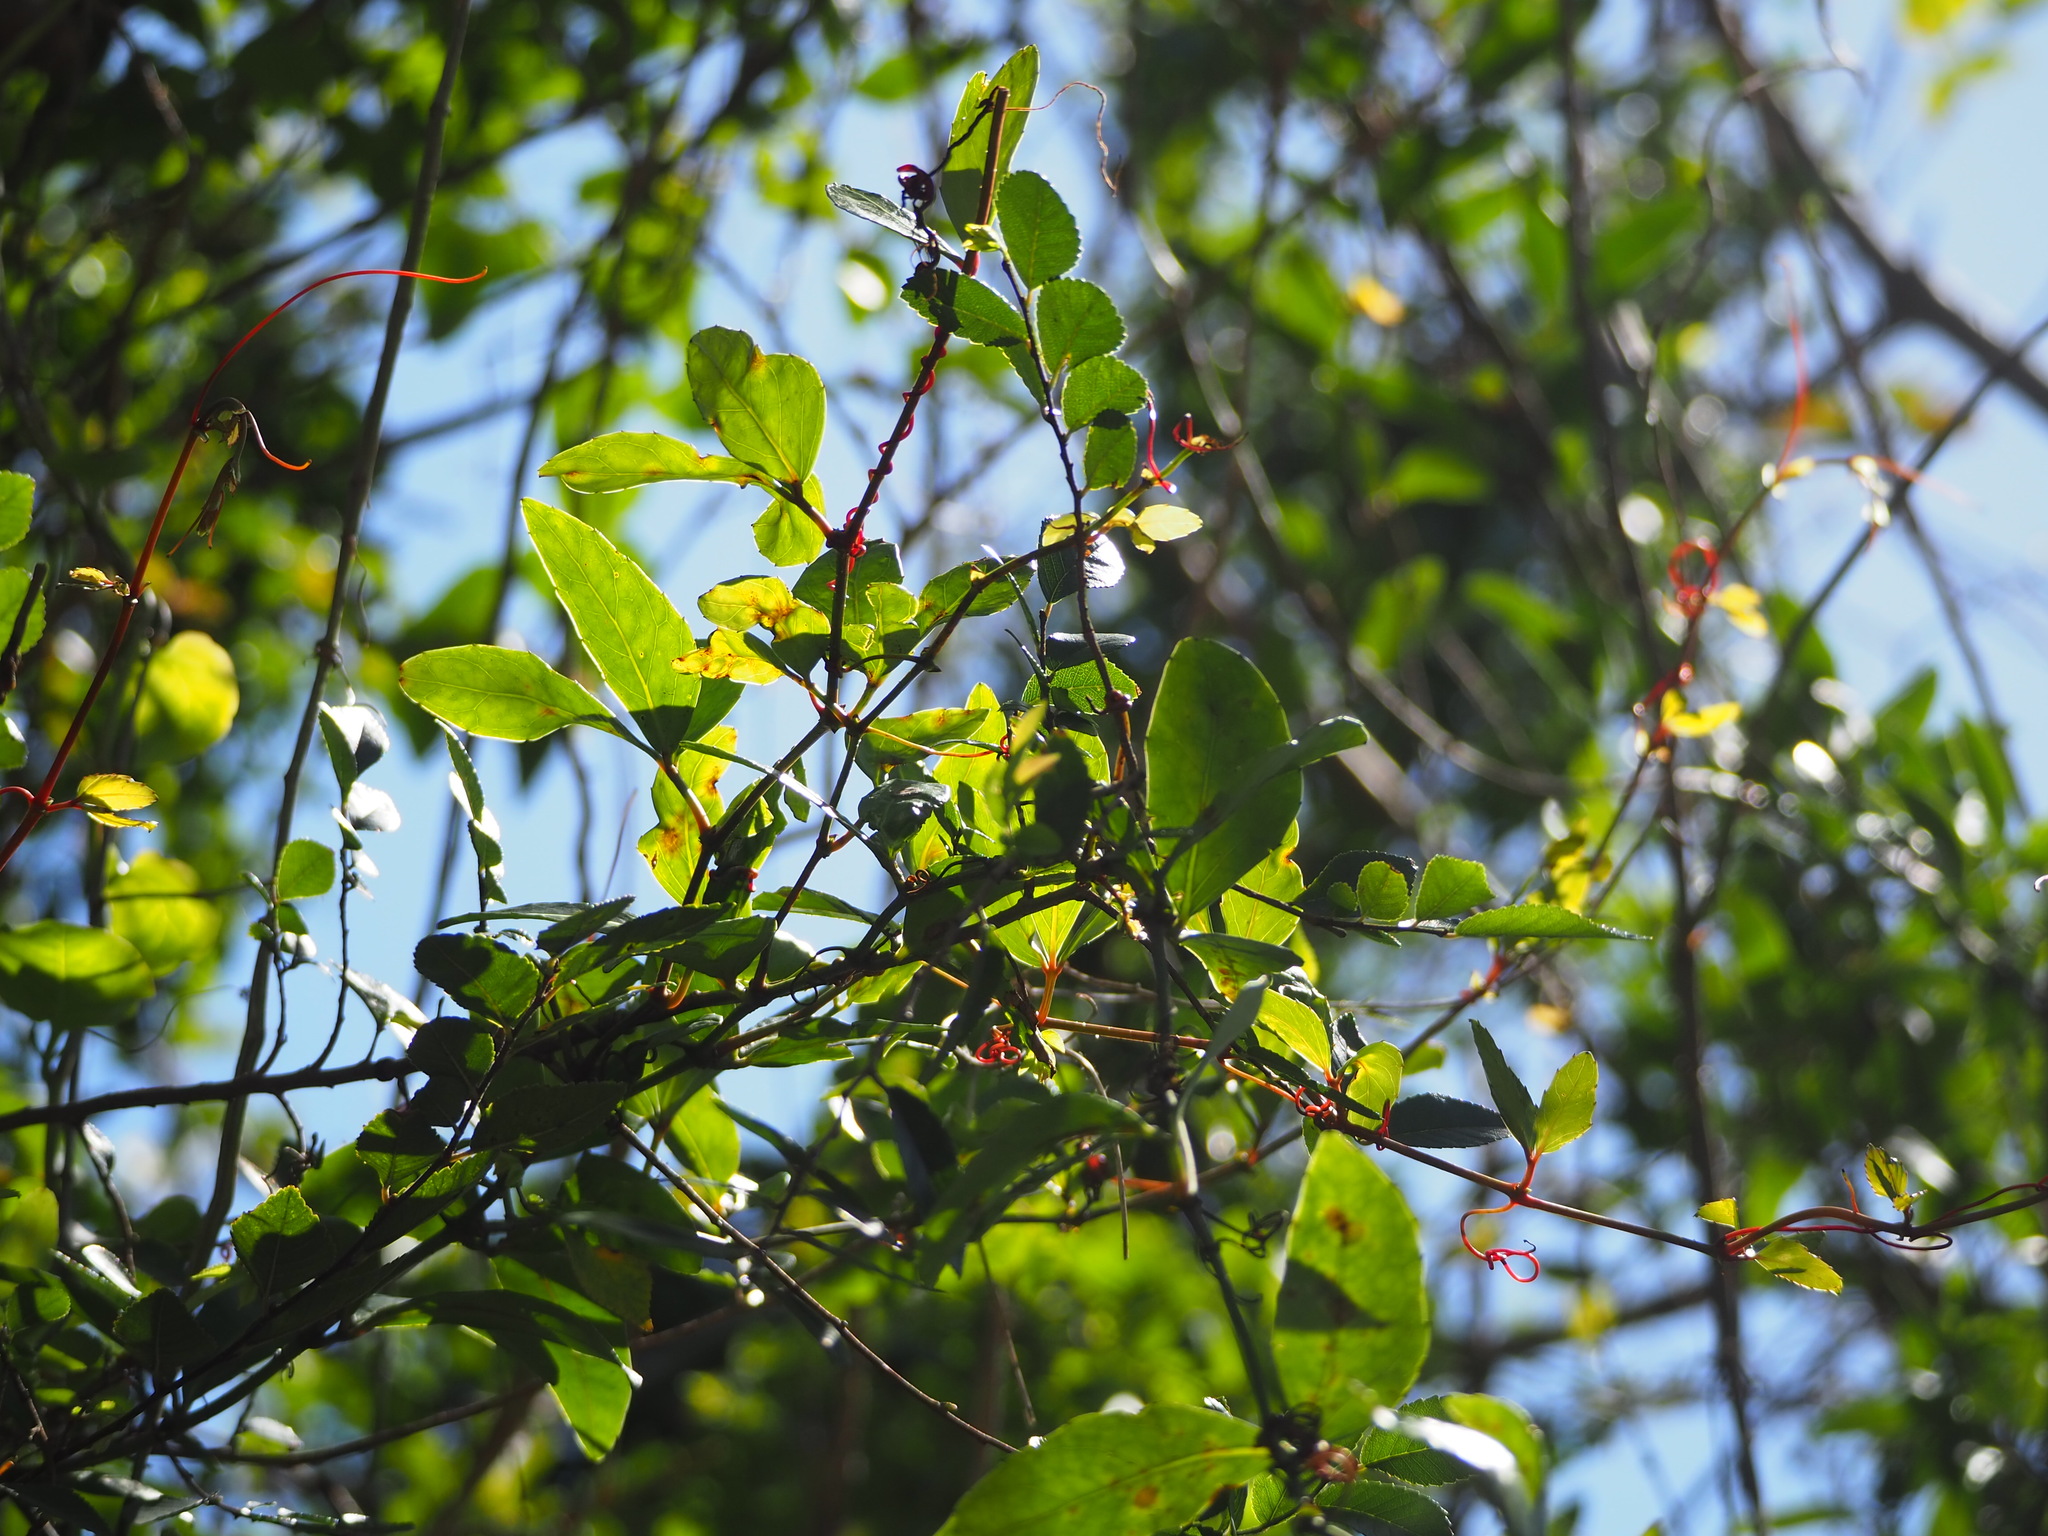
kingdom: Plantae
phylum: Tracheophyta
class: Magnoliopsida
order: Vitales
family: Vitaceae
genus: Tetrastigma
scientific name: Tetrastigma formosanum
